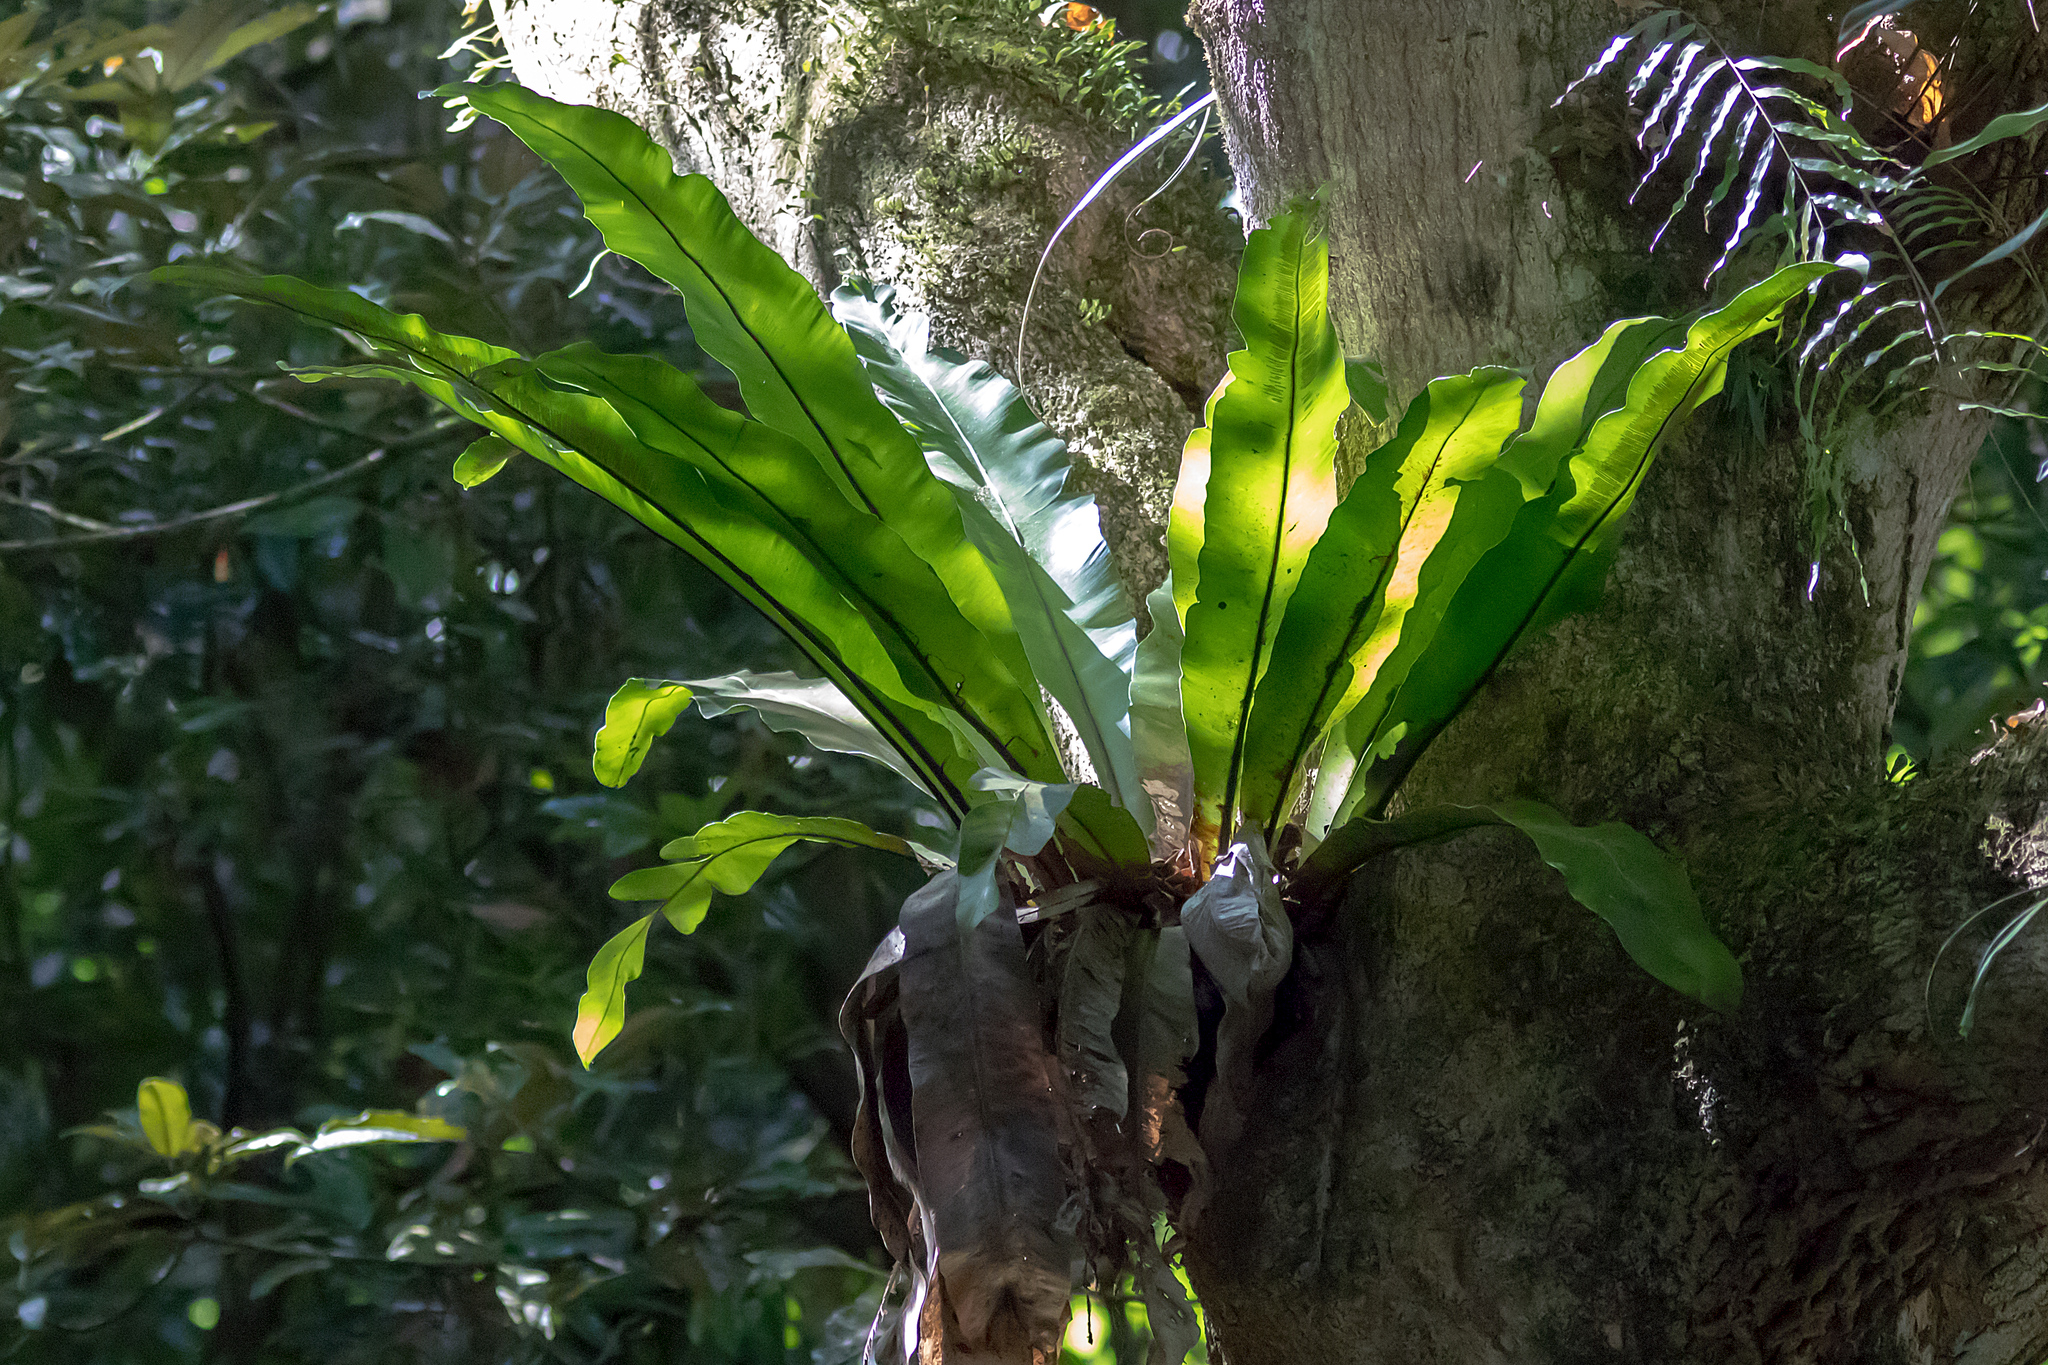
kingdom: Plantae
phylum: Tracheophyta
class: Polypodiopsida
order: Polypodiales
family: Aspleniaceae
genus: Asplenium
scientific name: Asplenium nidus
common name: Bird's-nest fern
